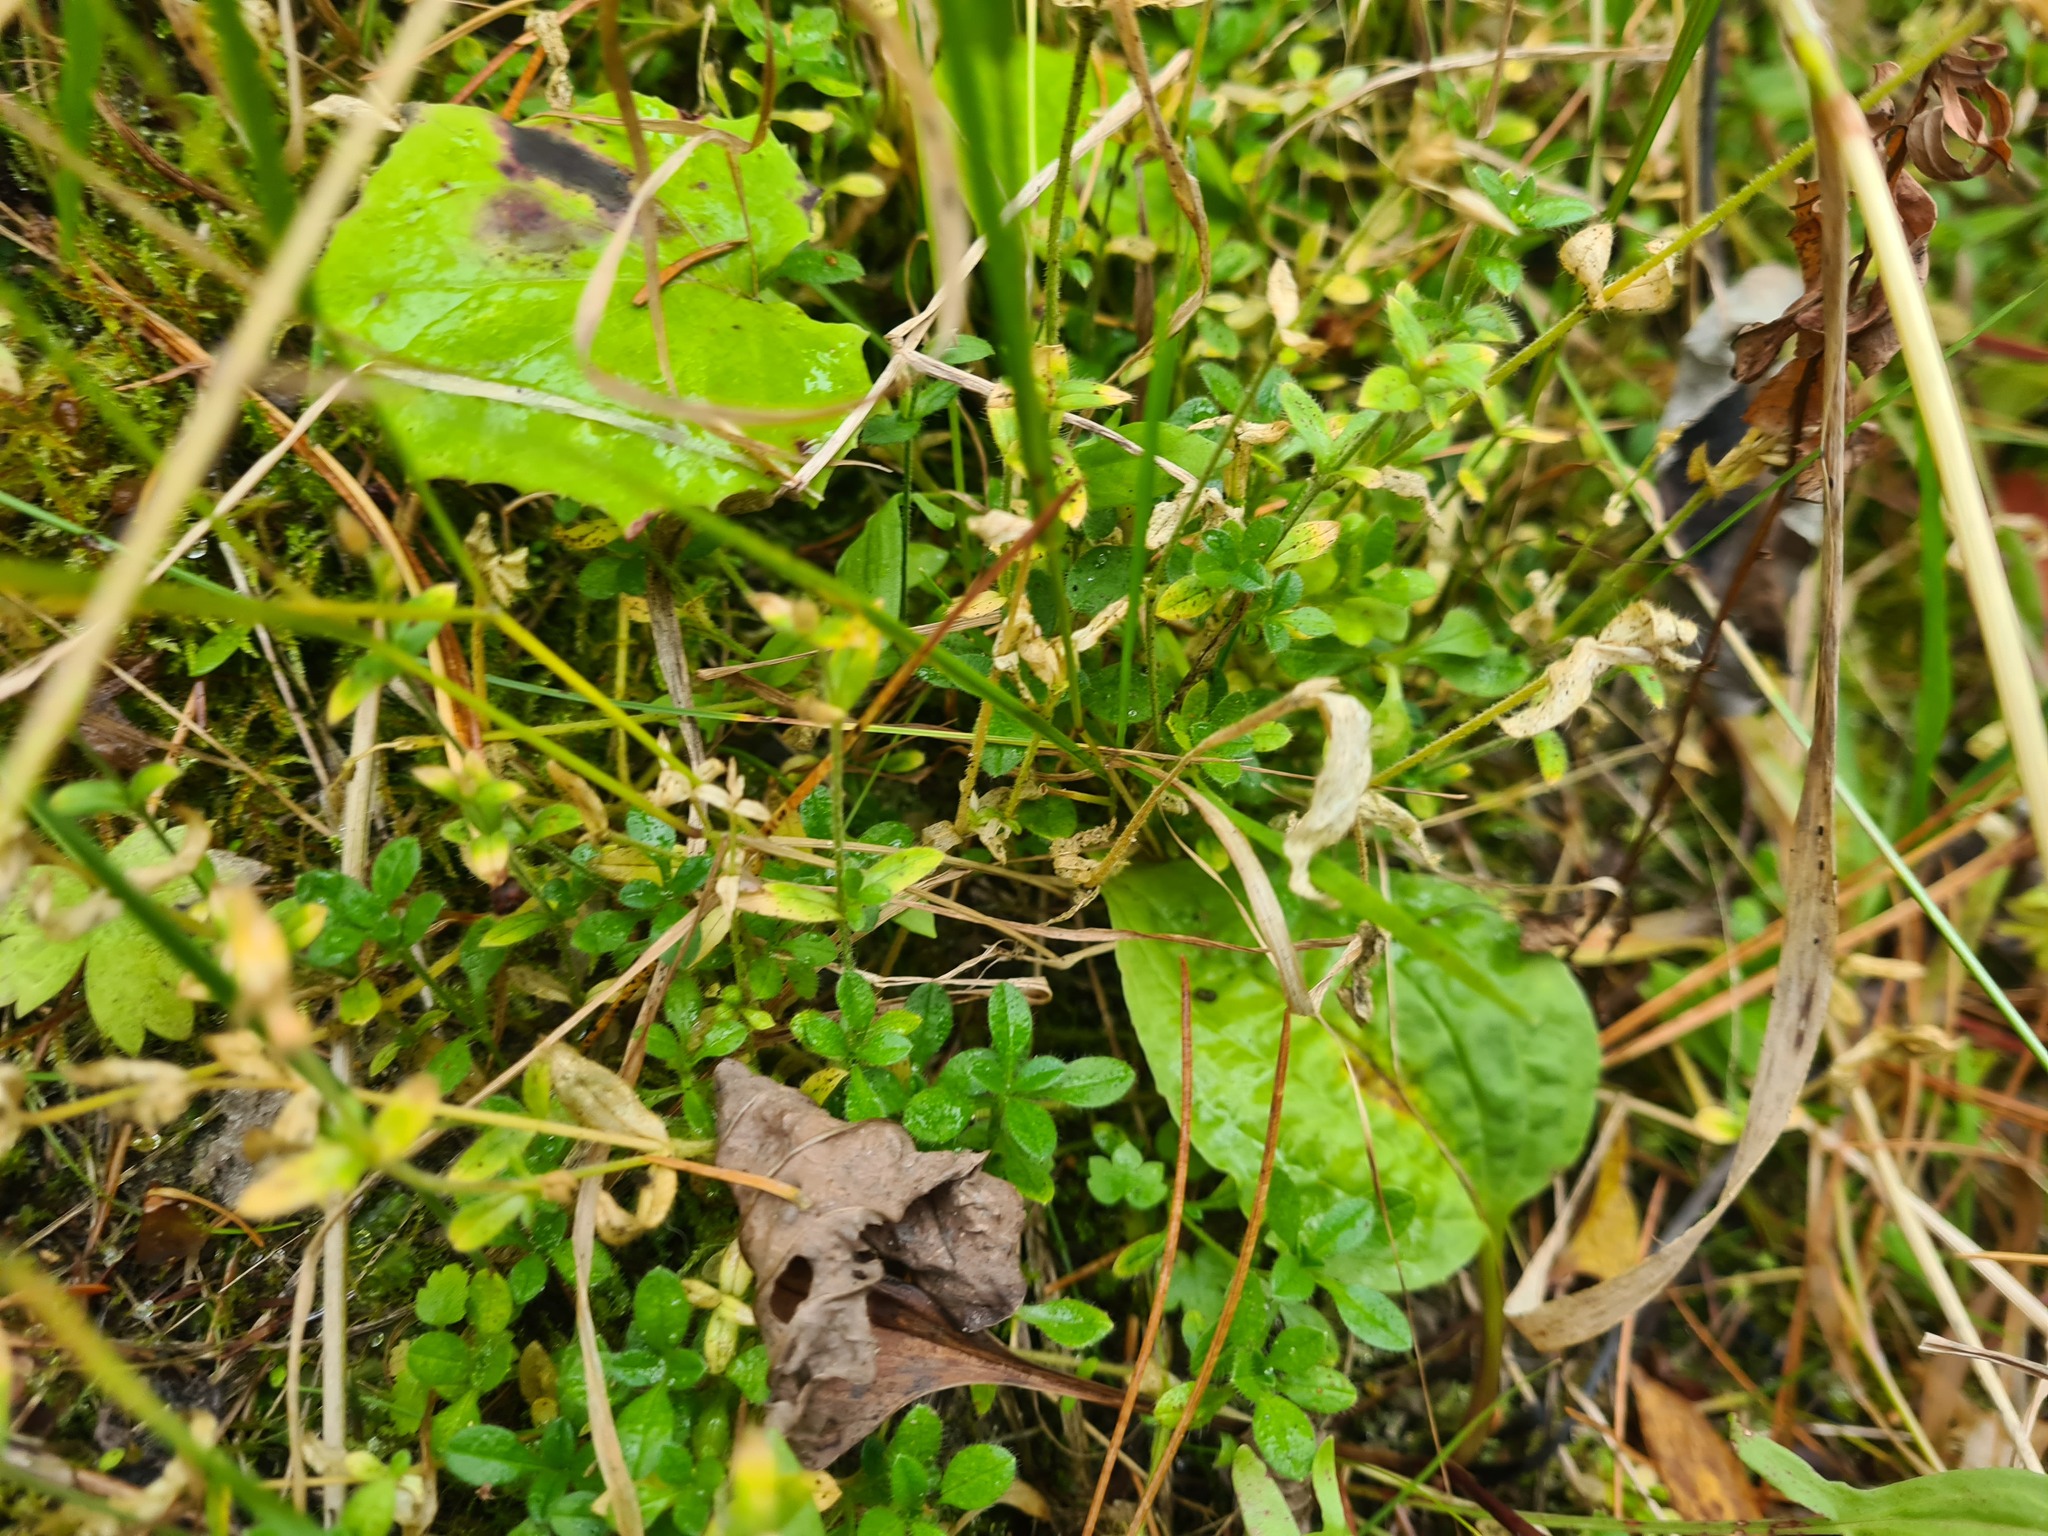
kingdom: Plantae
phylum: Tracheophyta
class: Magnoliopsida
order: Caryophyllales
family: Caryophyllaceae
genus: Cerastium
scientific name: Cerastium holosteoides
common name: Big chickweed
